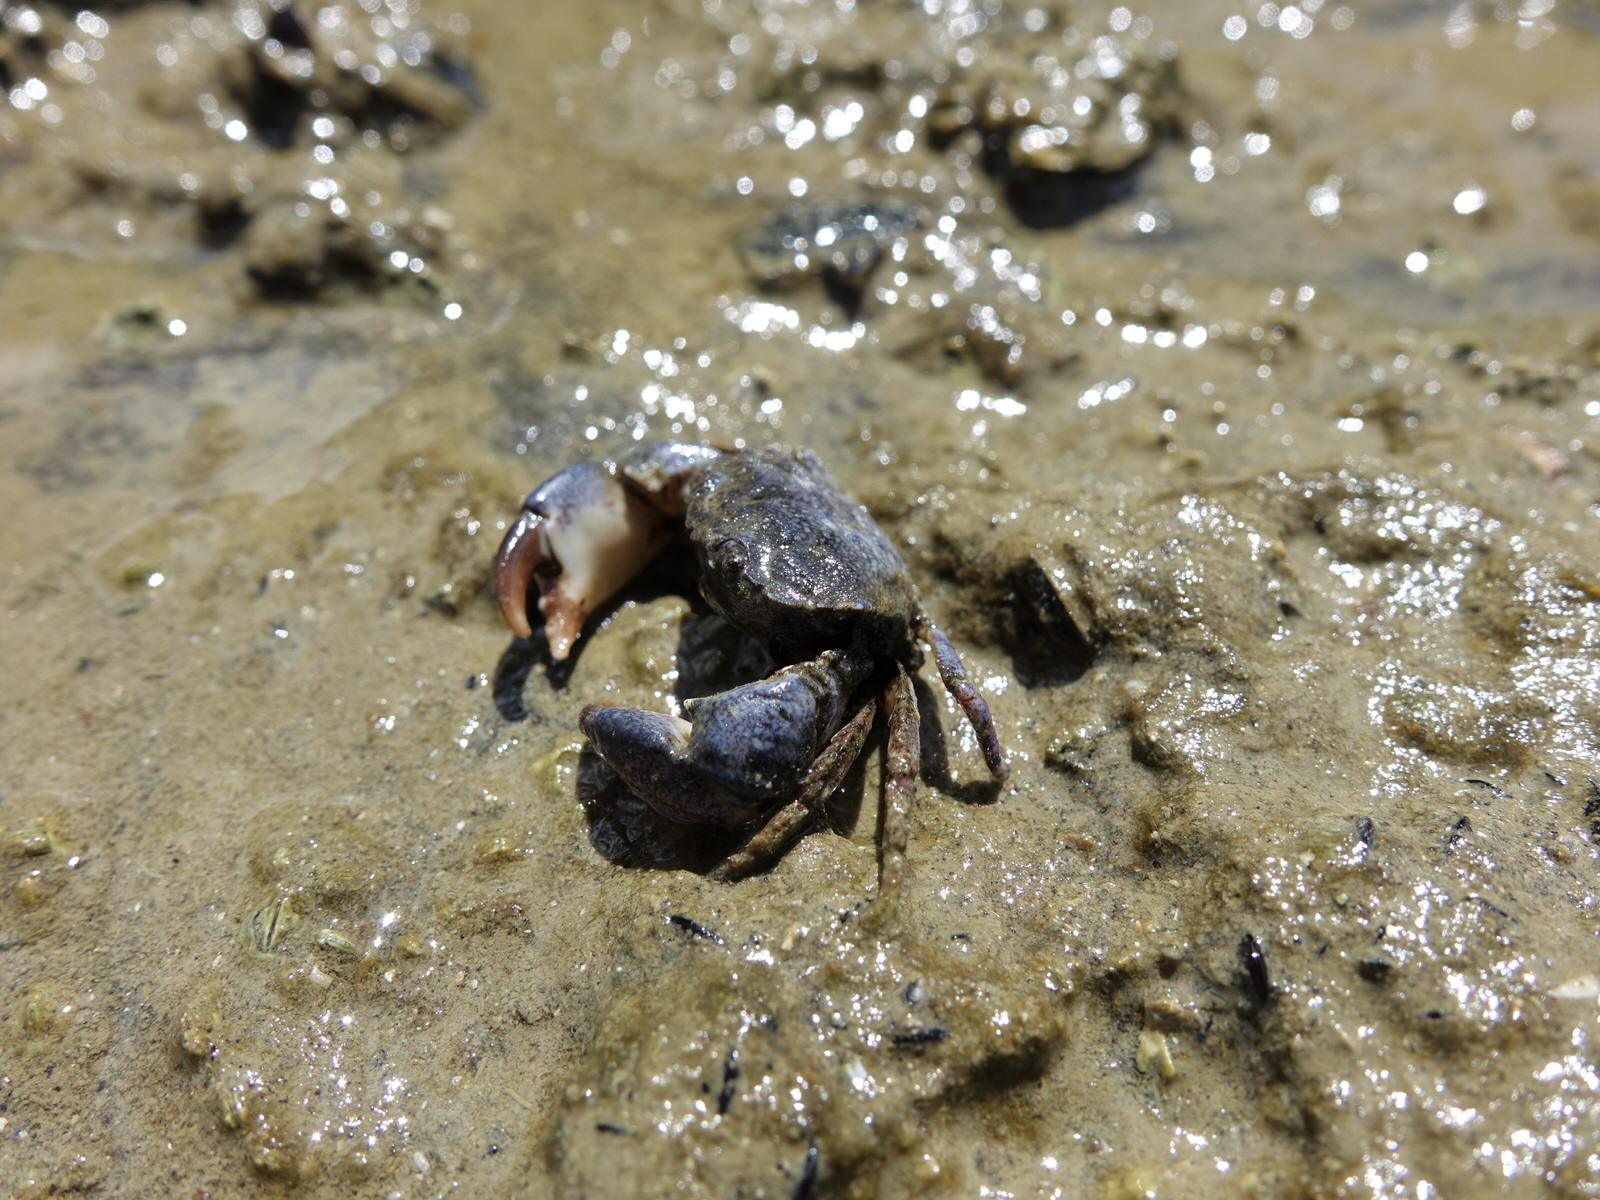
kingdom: Animalia
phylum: Arthropoda
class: Malacostraca
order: Decapoda
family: Pilumnidae
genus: Pilumnopeus
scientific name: Pilumnopeus serratifrons
